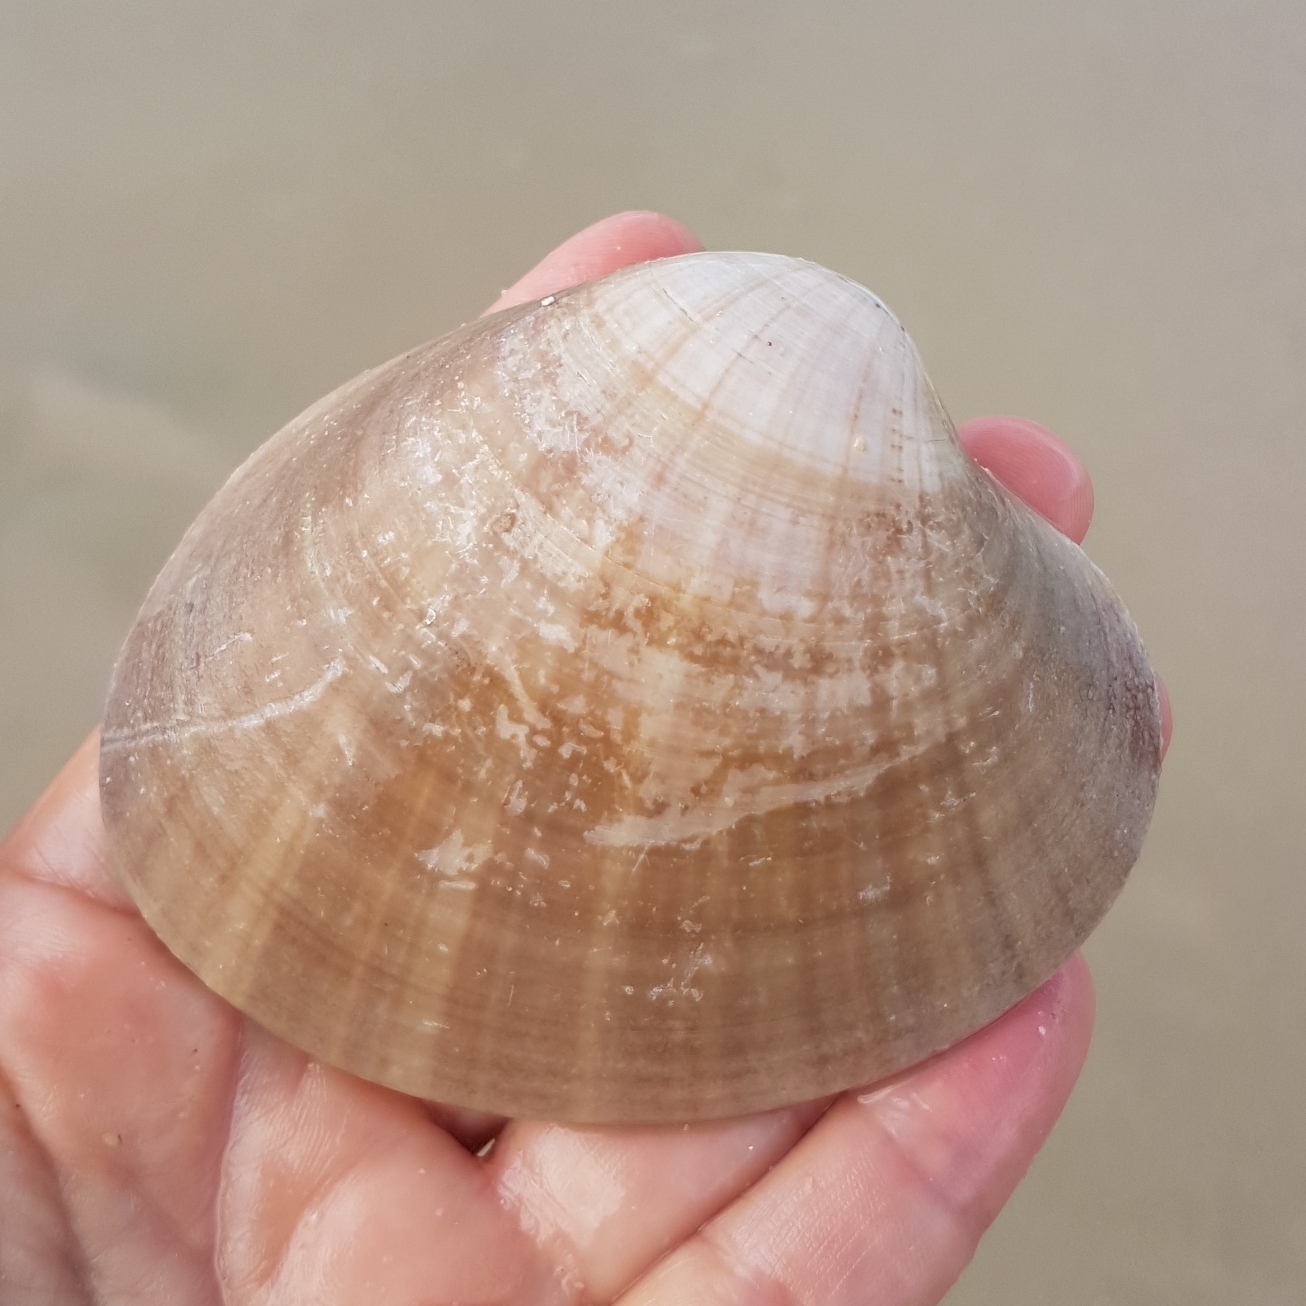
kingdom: Animalia
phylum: Mollusca
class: Bivalvia
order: Venerida
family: Veneridae
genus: Callista
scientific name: Callista chione
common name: Brown venus
